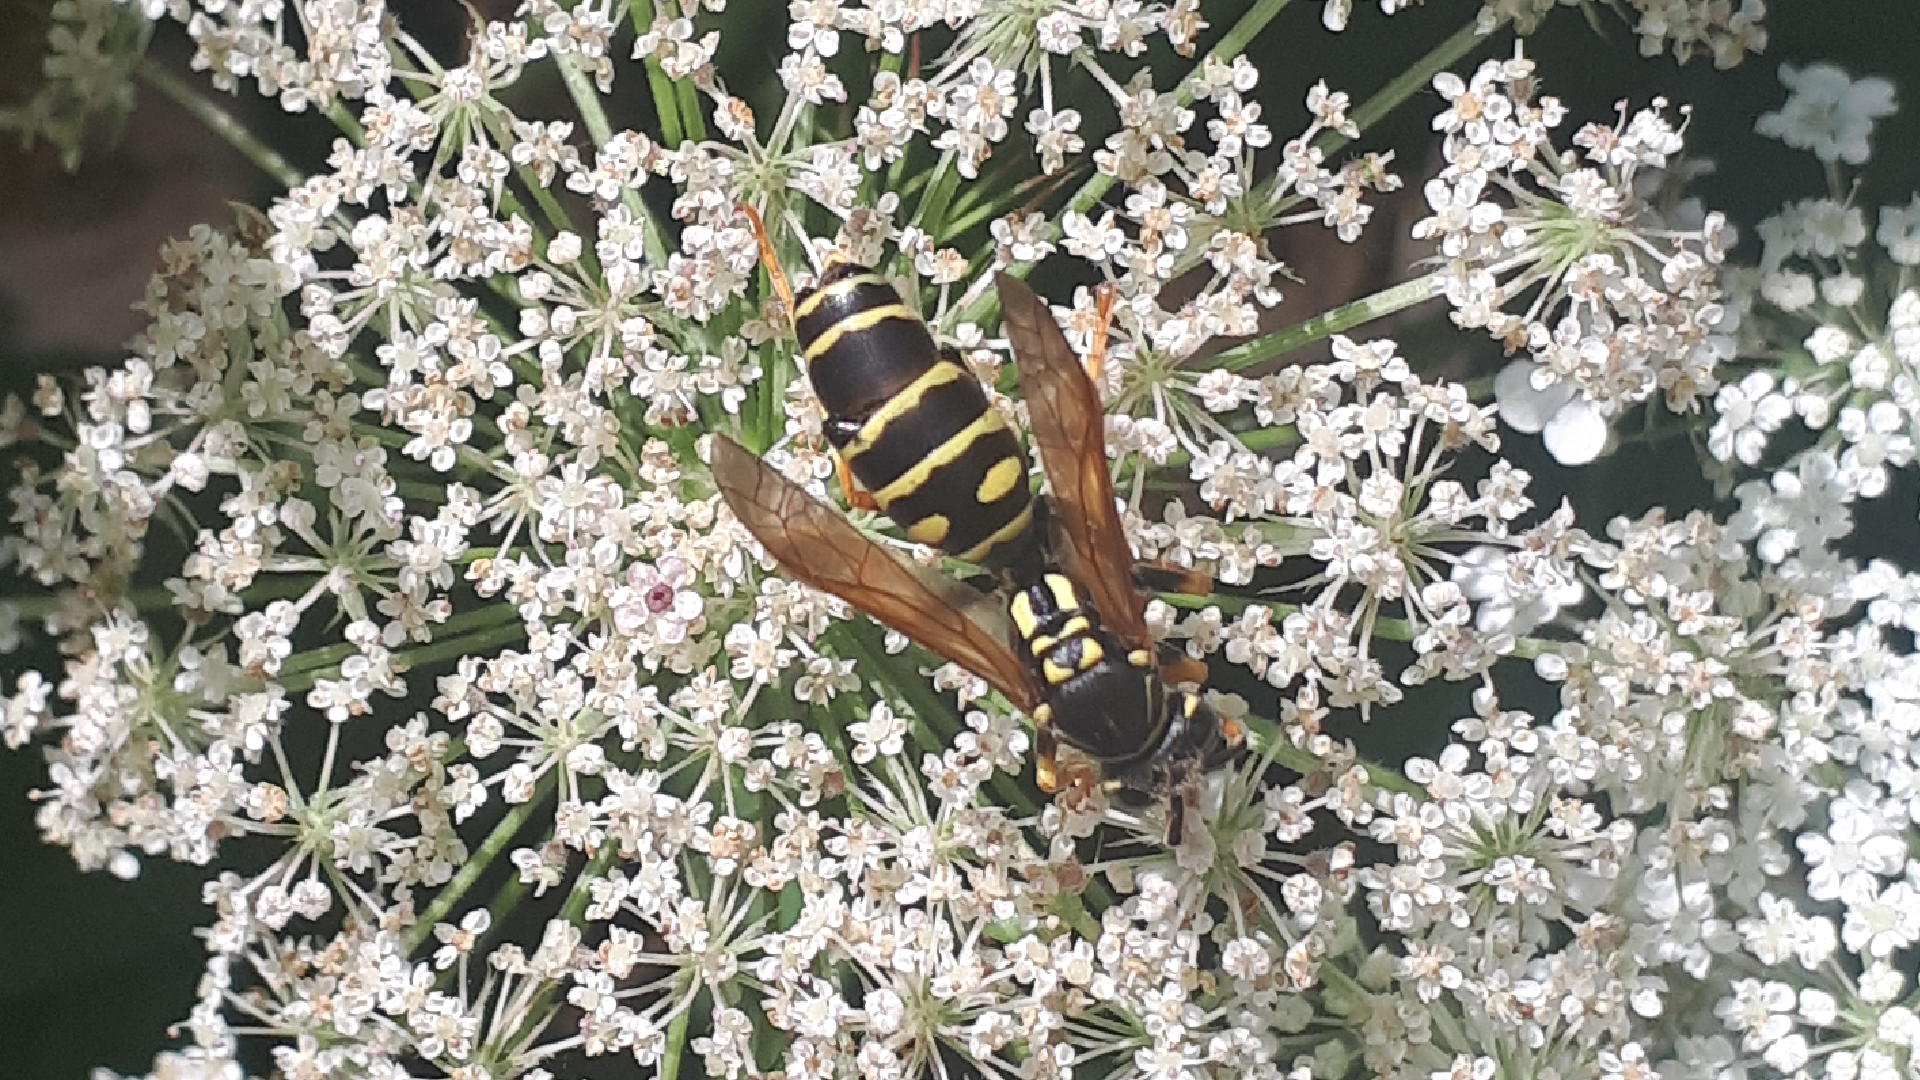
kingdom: Animalia
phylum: Arthropoda
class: Insecta
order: Strepsiptera
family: Xenidae
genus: Xenos
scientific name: Xenos vesparum
